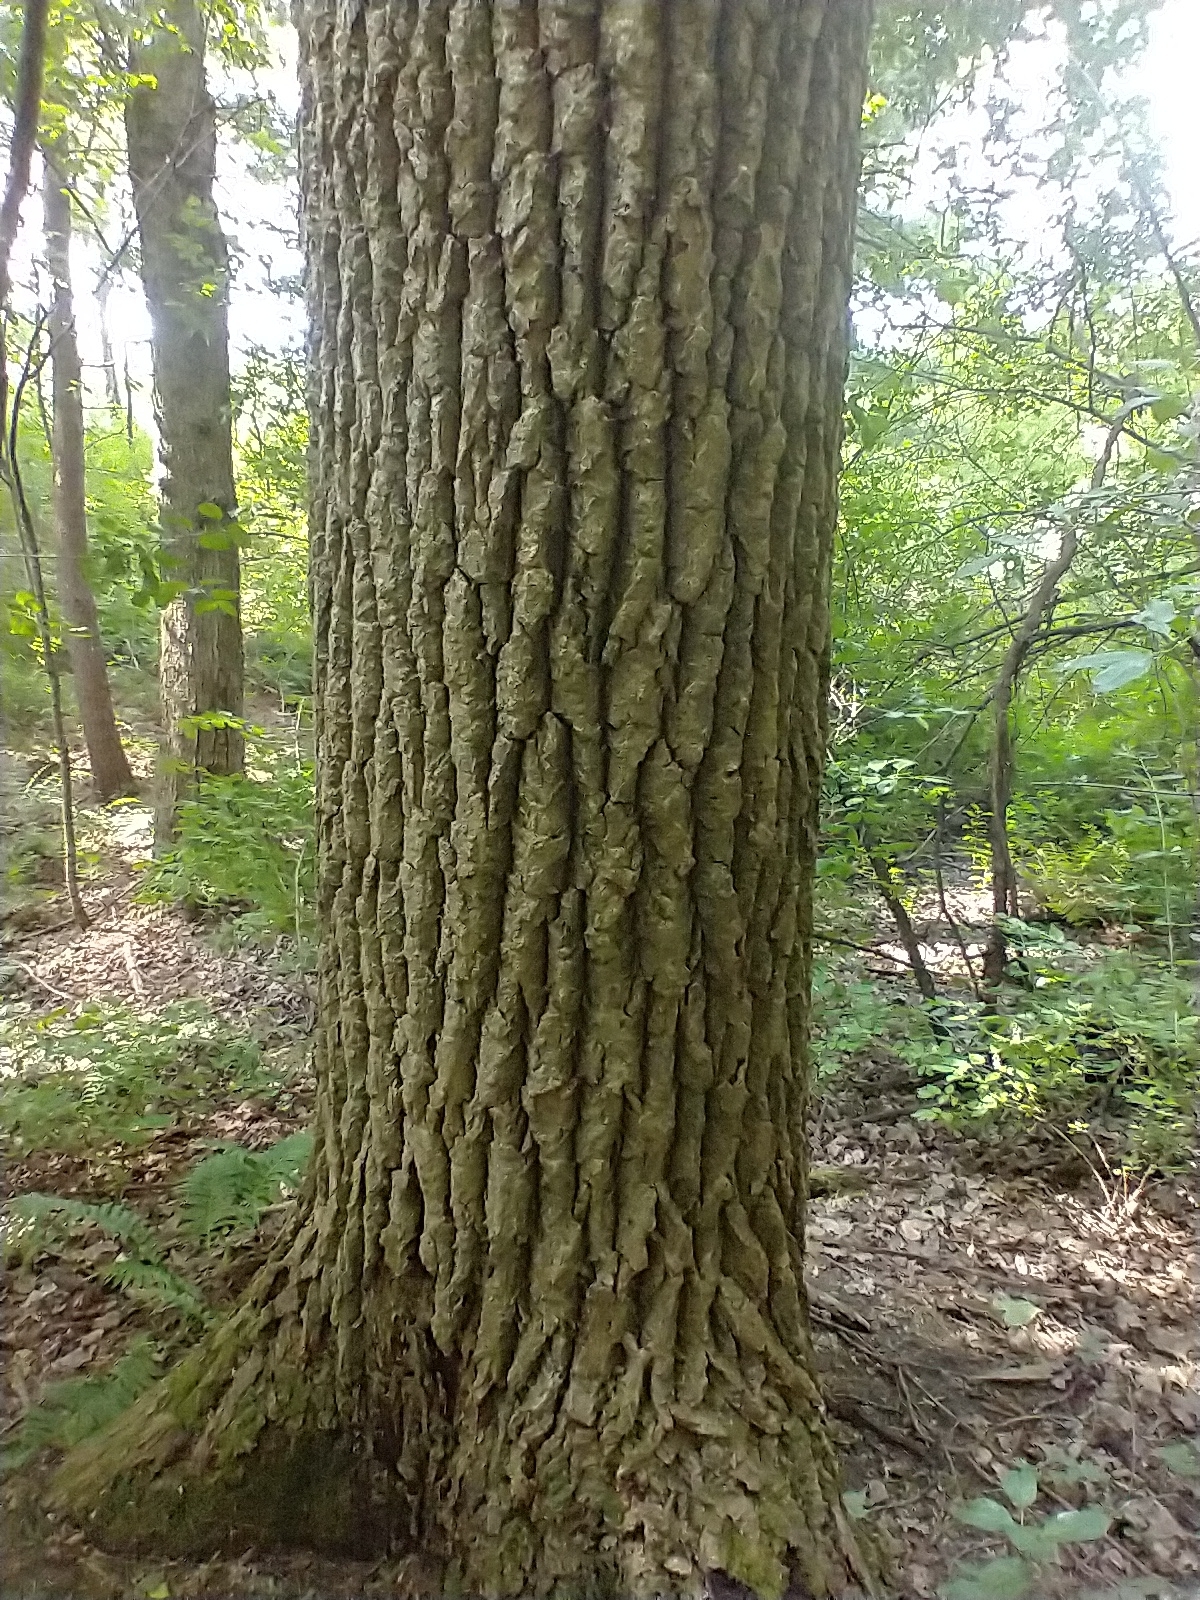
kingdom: Plantae
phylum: Tracheophyta
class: Magnoliopsida
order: Malpighiales
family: Salicaceae
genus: Populus
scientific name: Populus deltoides
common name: Eastern cottonwood
